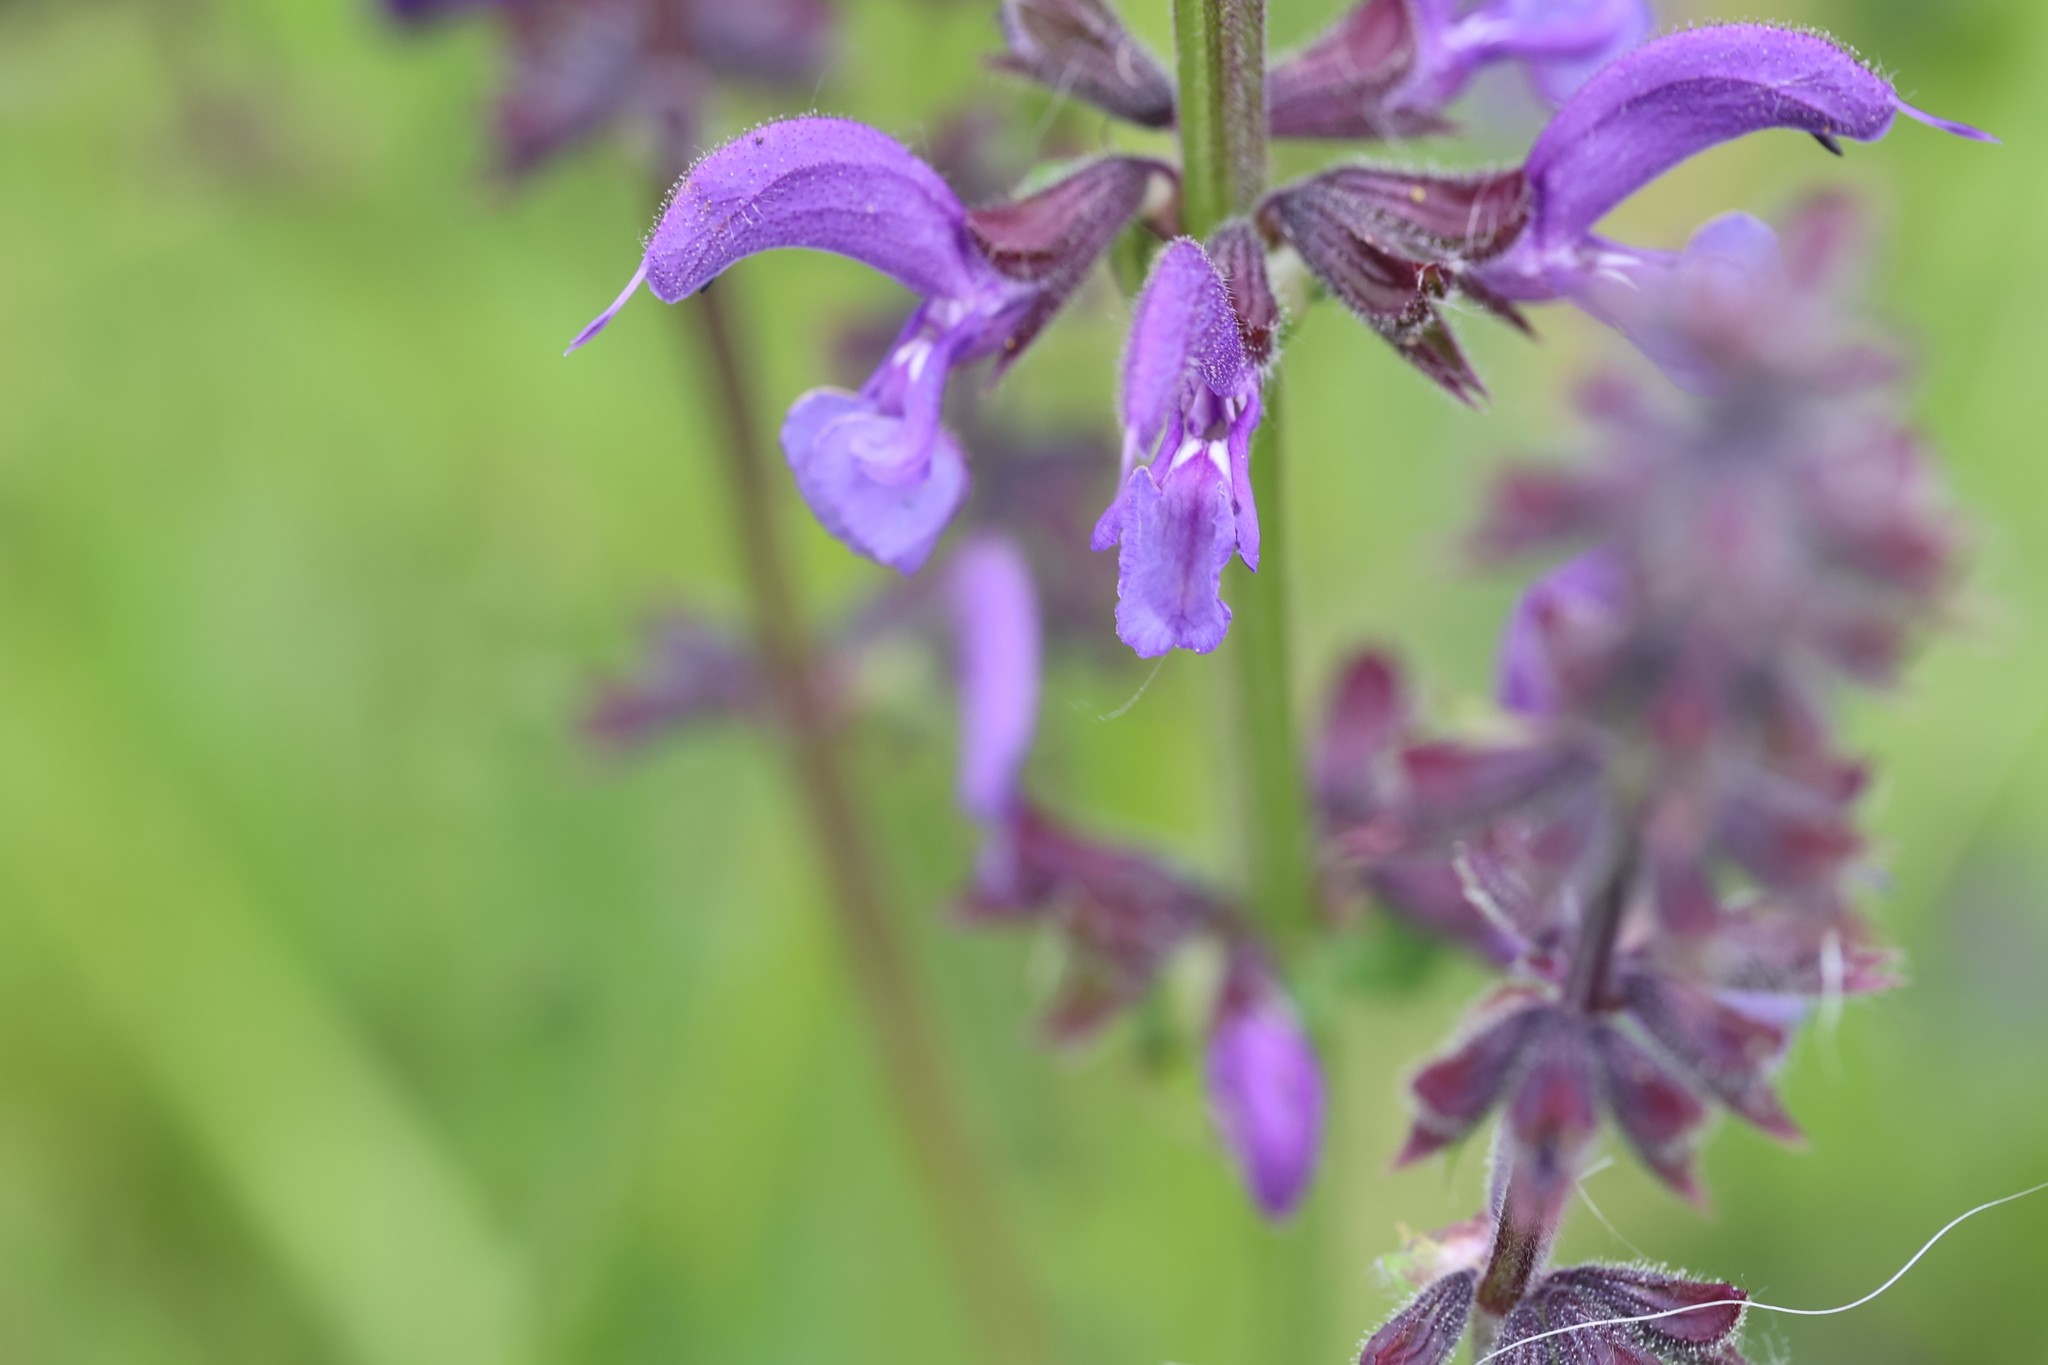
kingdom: Plantae
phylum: Tracheophyta
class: Magnoliopsida
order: Lamiales
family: Lamiaceae
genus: Salvia
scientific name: Salvia pratensis
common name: Meadow sage
